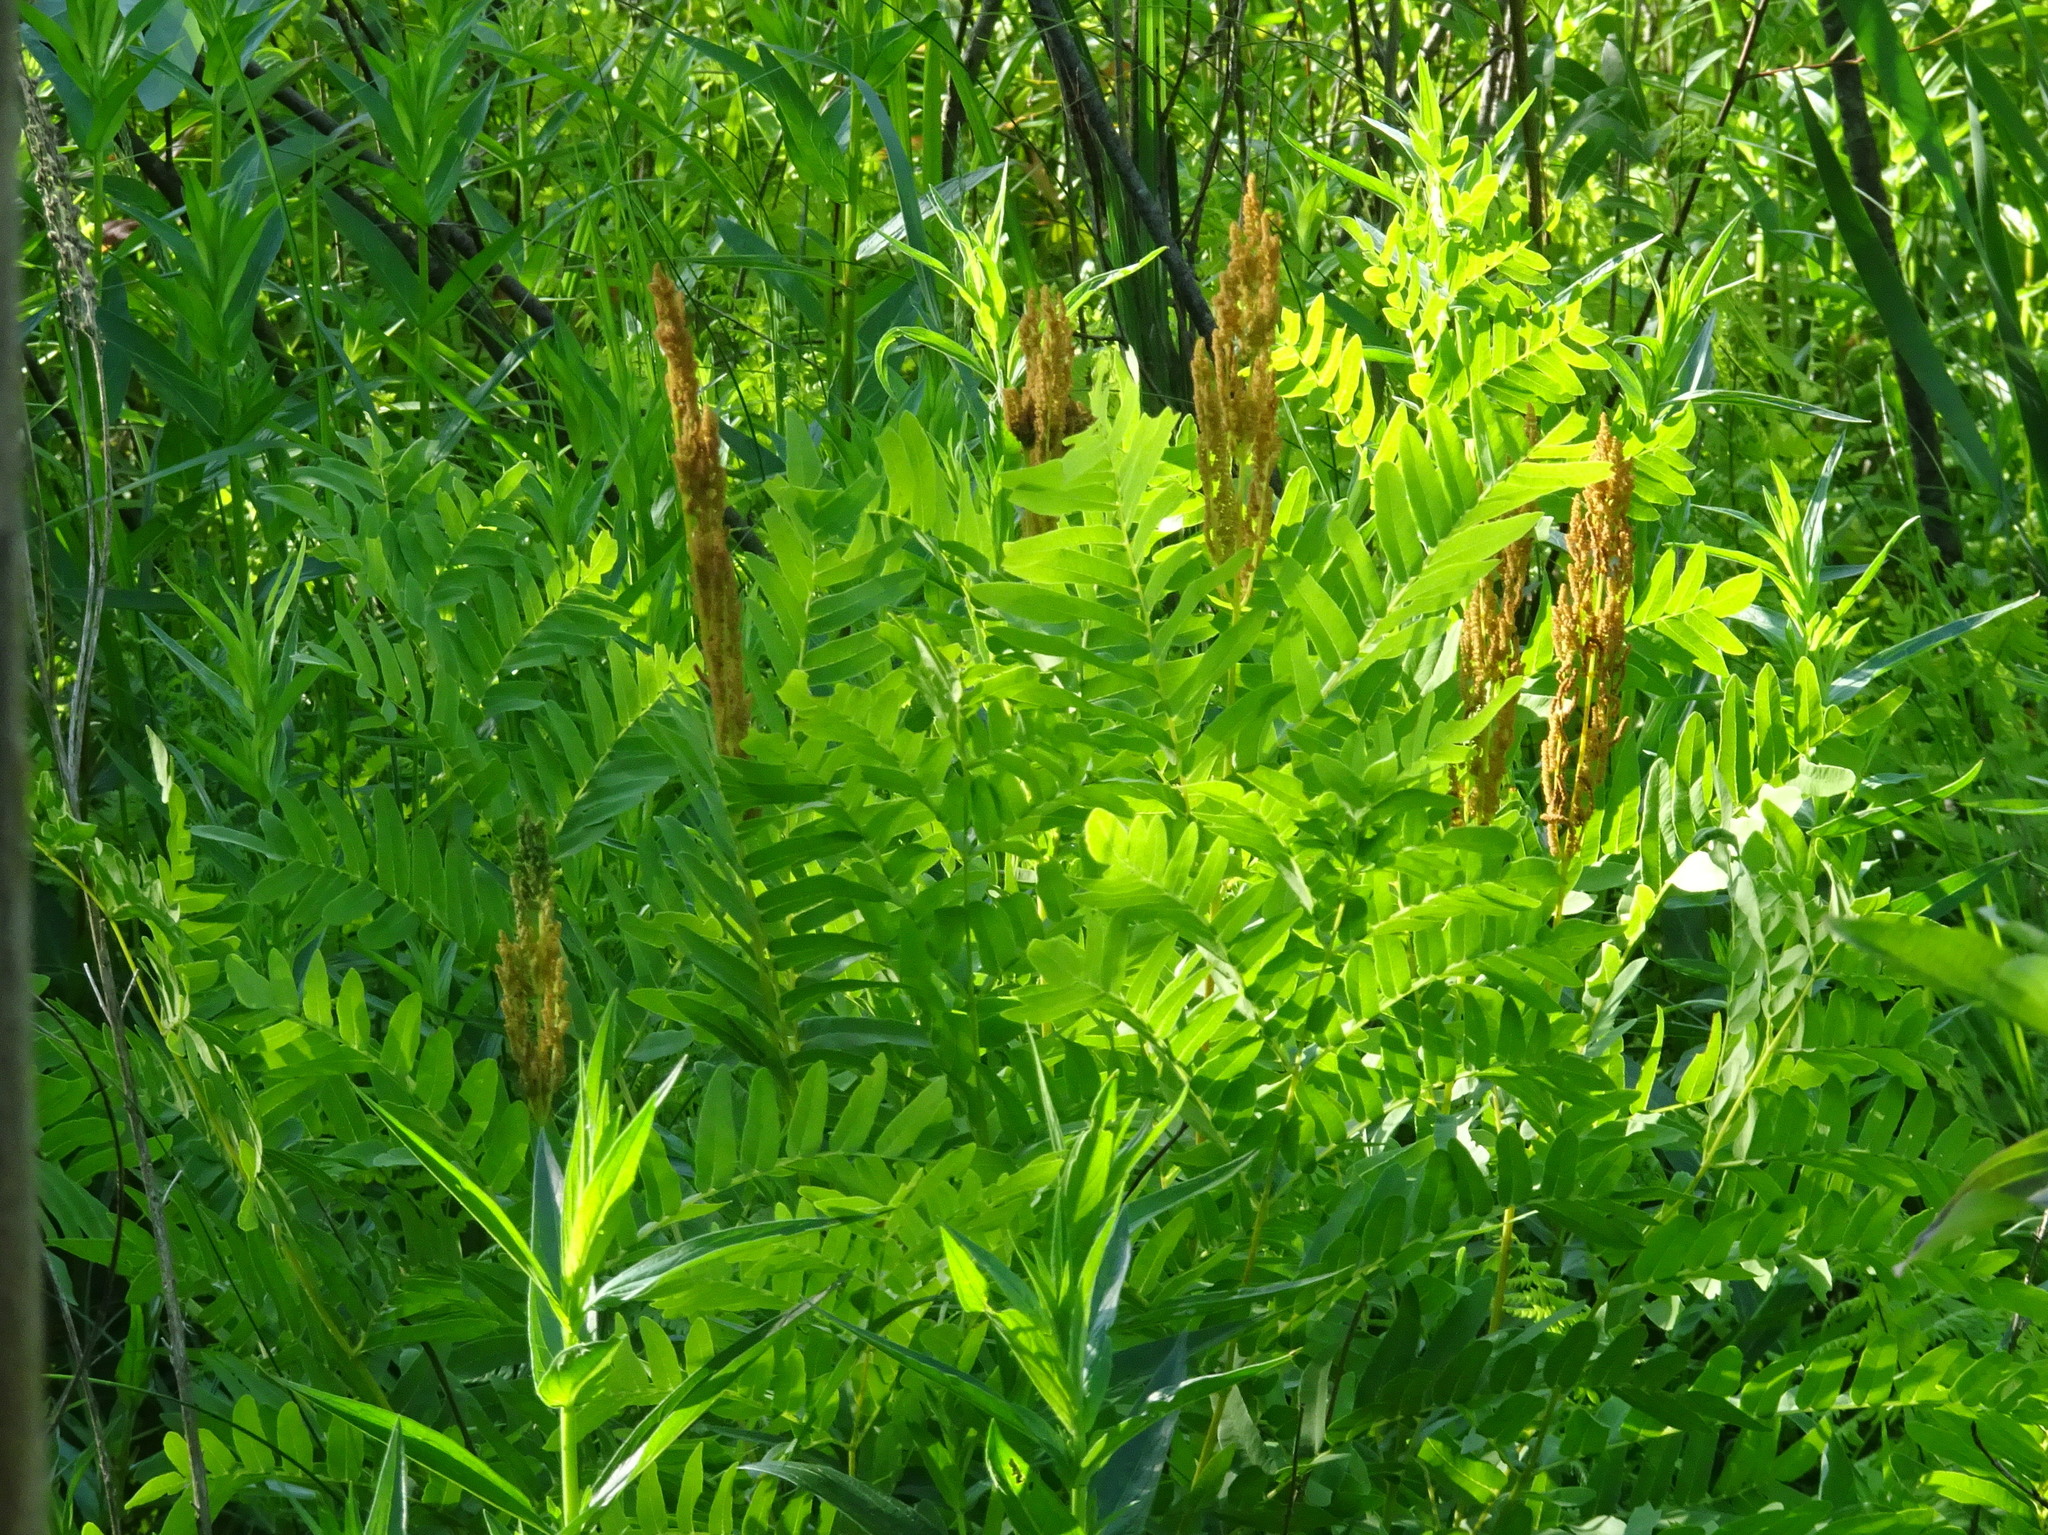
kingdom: Plantae
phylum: Tracheophyta
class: Polypodiopsida
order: Osmundales
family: Osmundaceae
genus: Osmunda
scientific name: Osmunda spectabilis
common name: American royal fern
